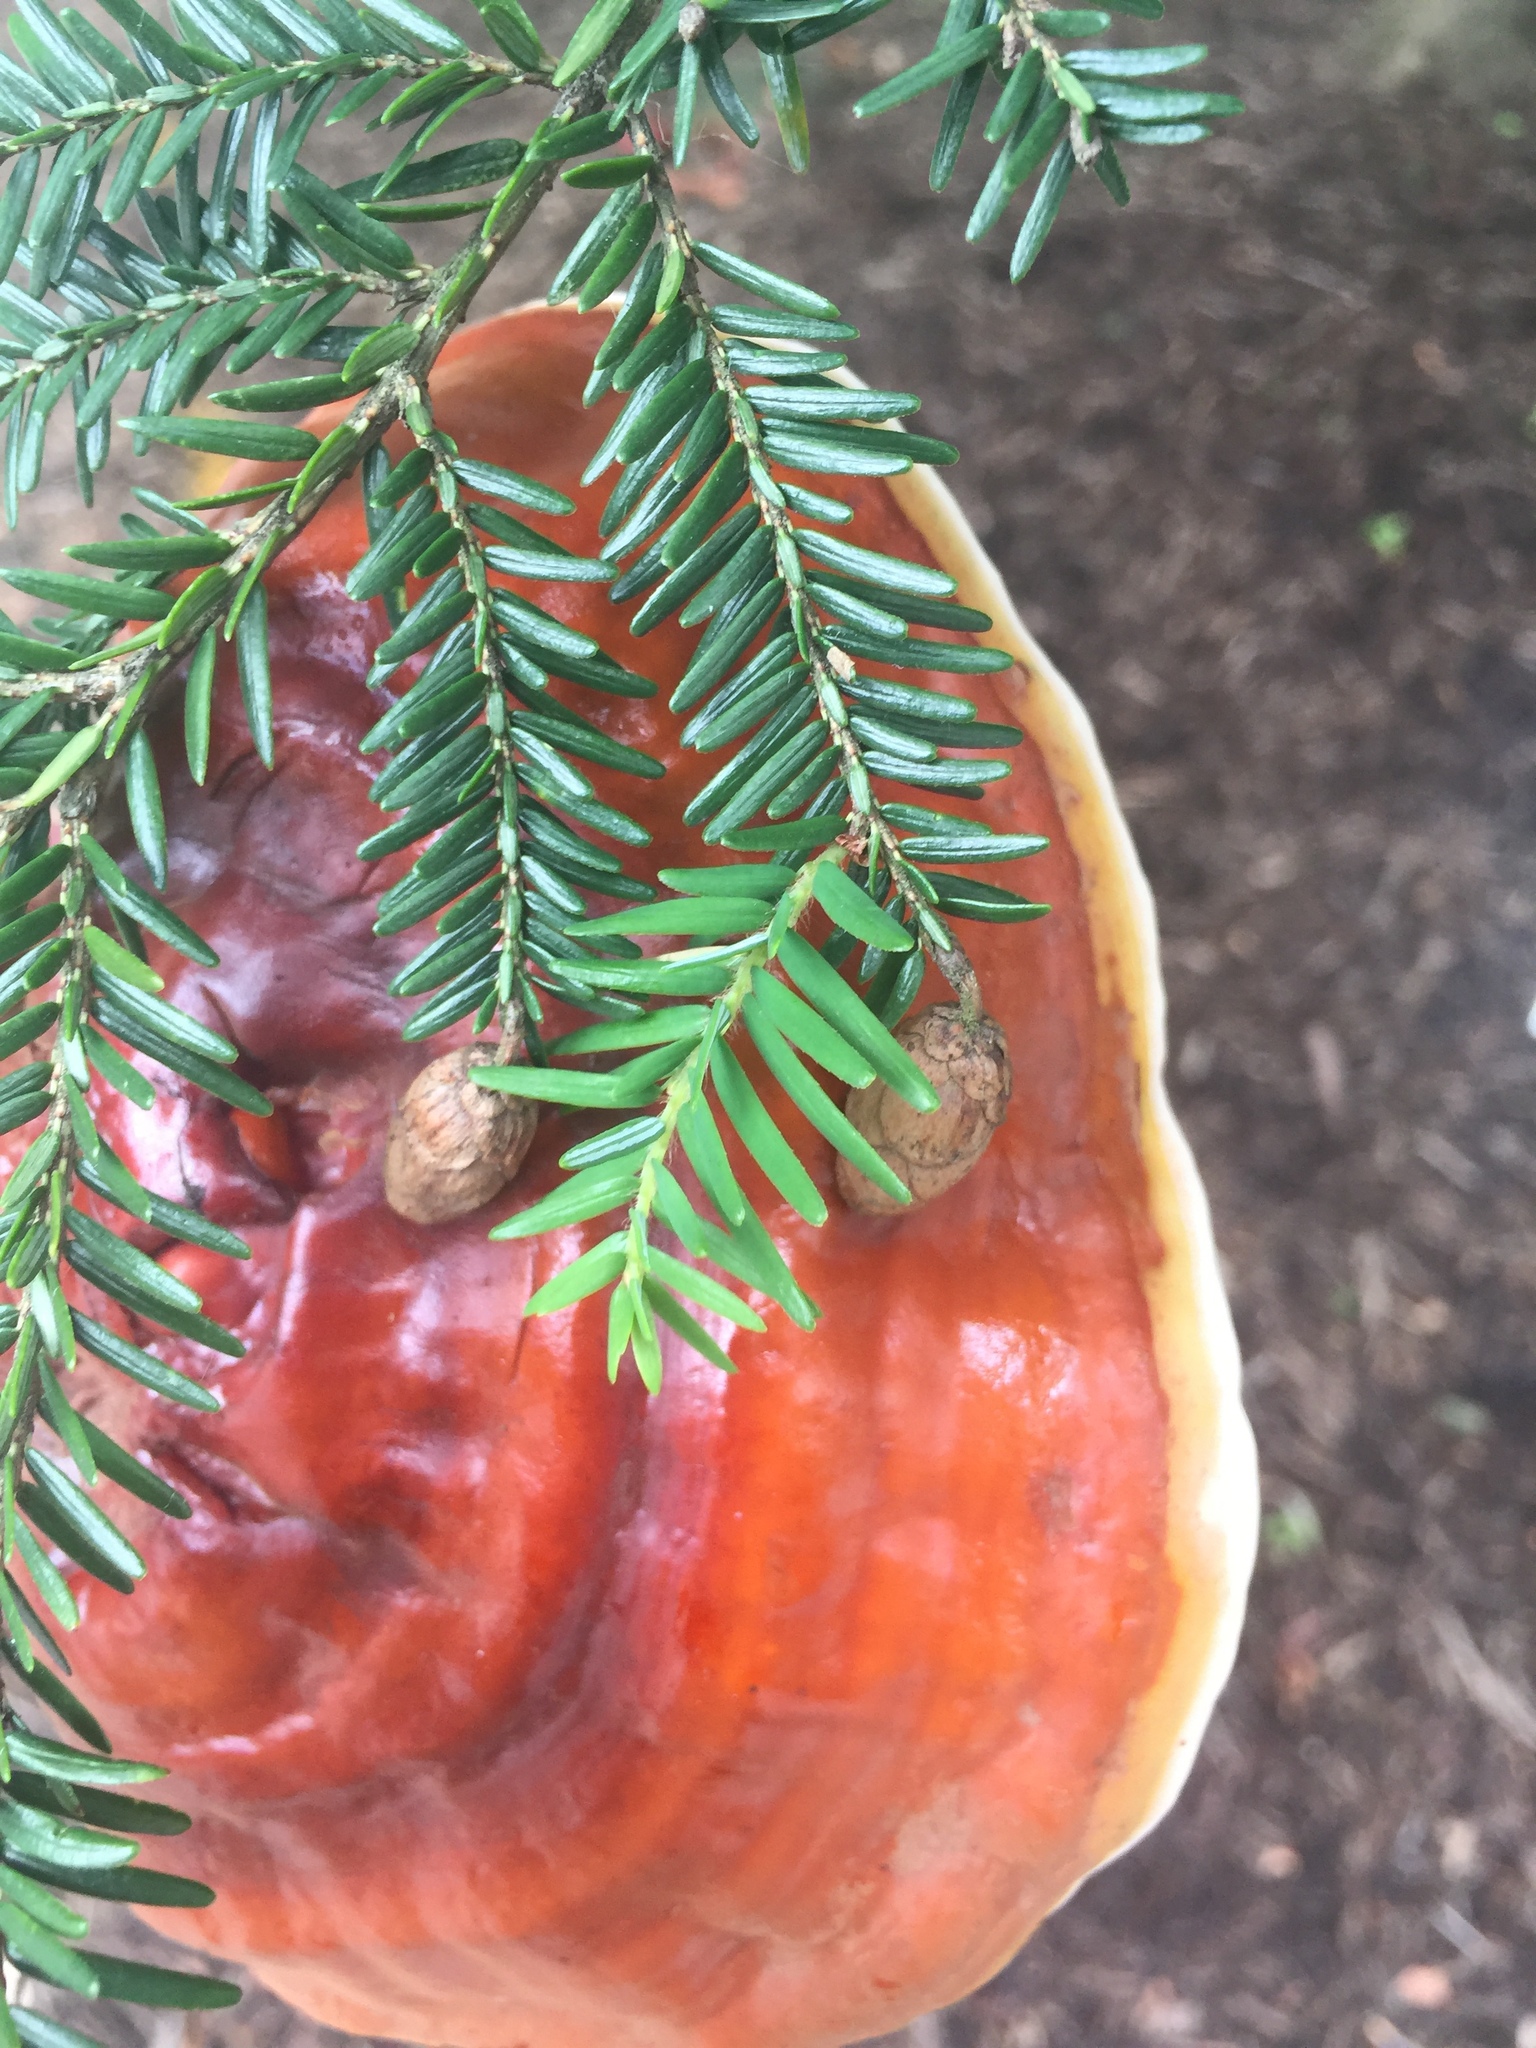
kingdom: Fungi
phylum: Basidiomycota
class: Agaricomycetes
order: Polyporales
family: Polyporaceae
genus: Ganoderma
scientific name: Ganoderma tsugae
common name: Hemlock varnish shelf
